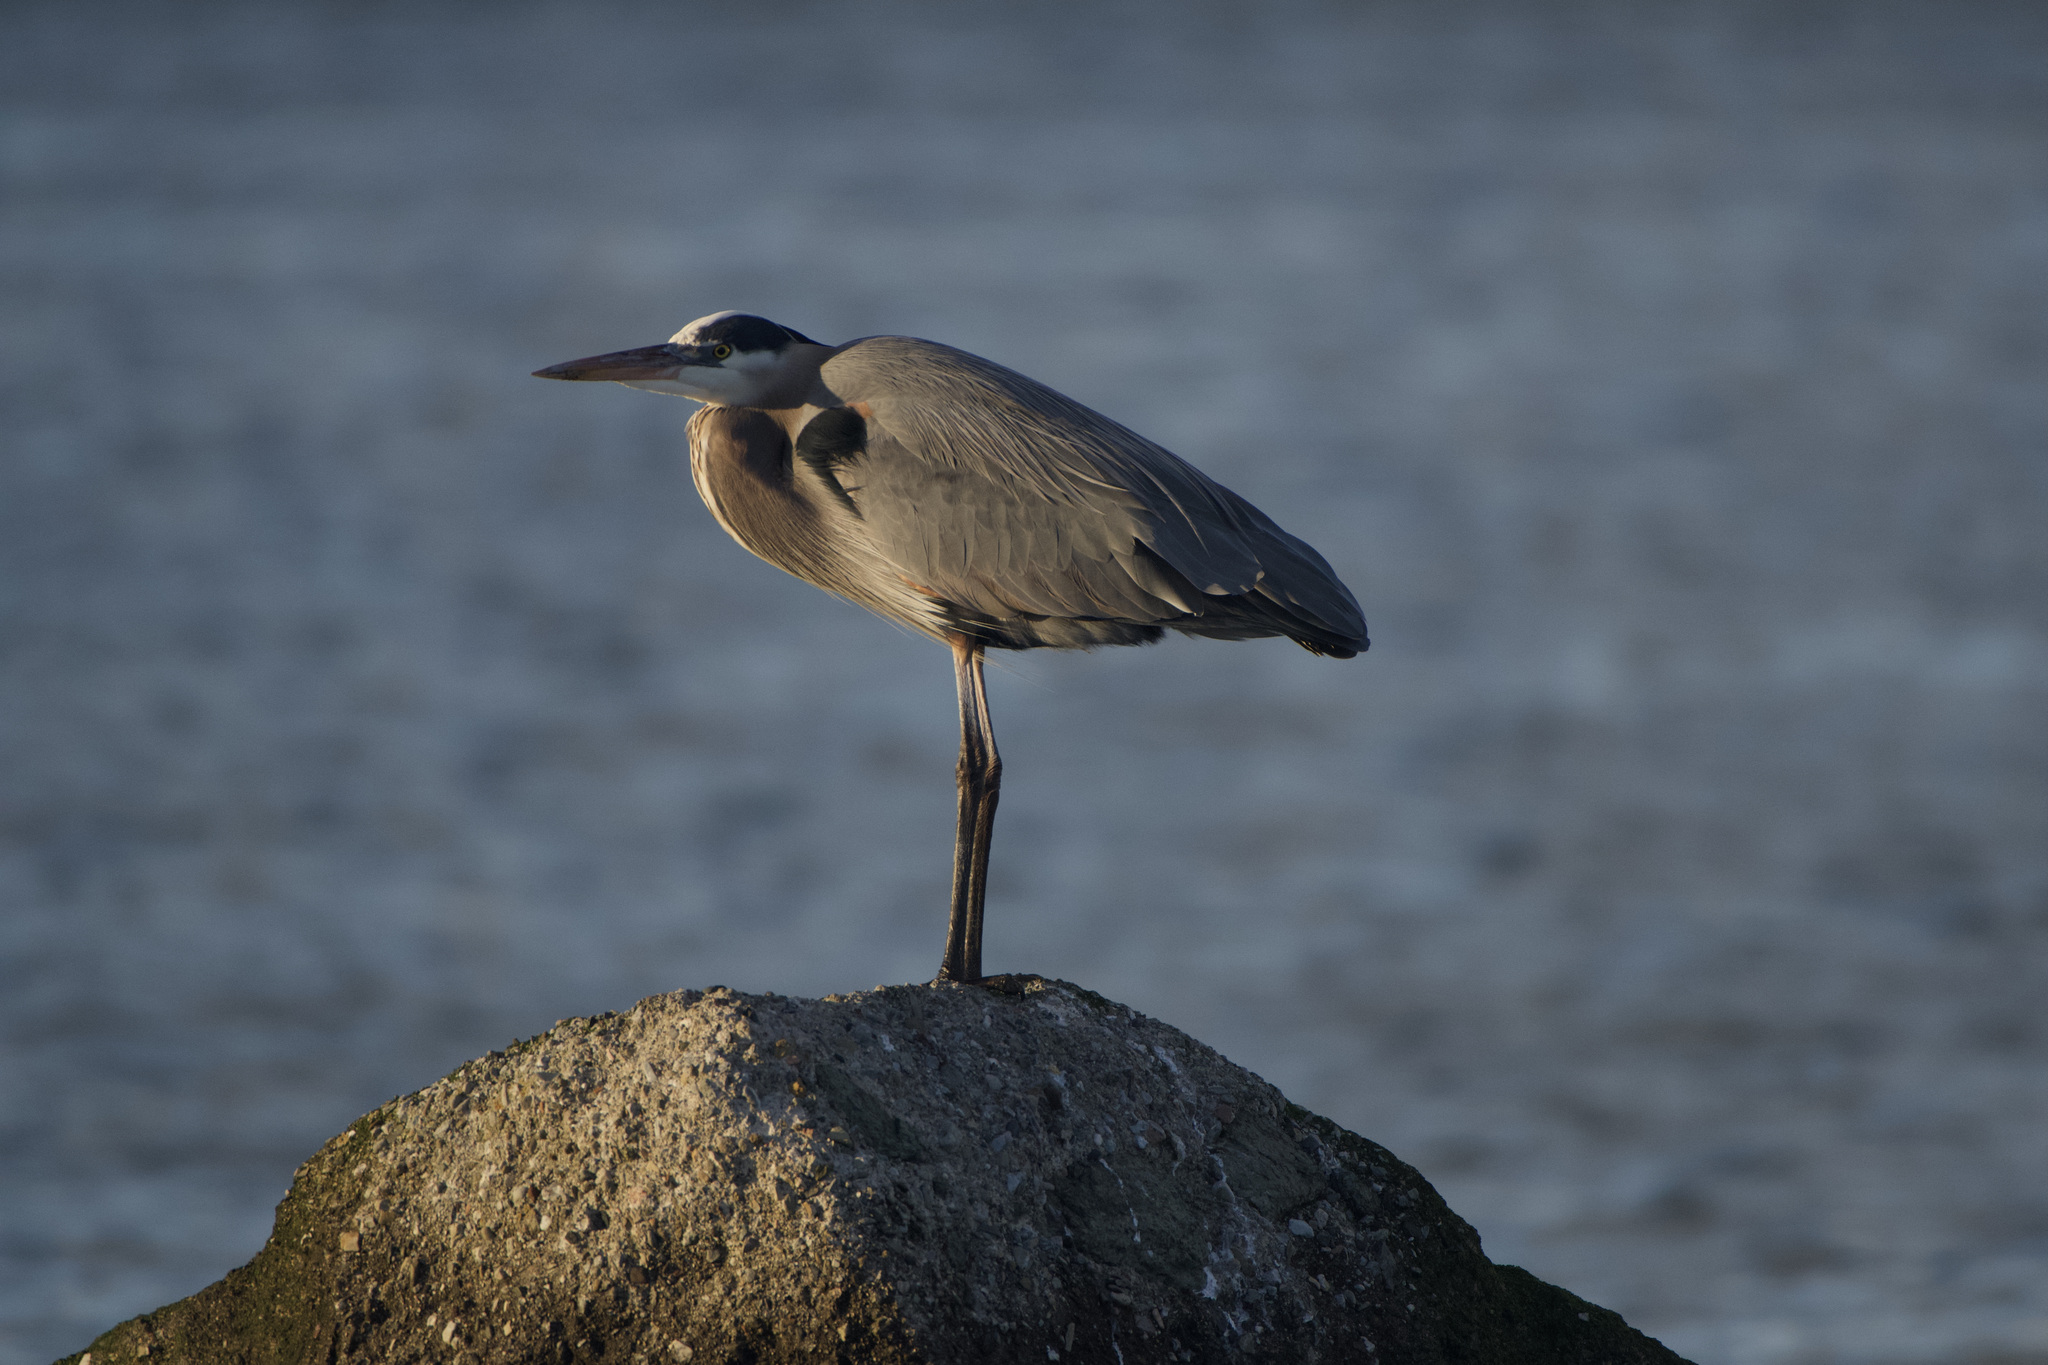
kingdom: Animalia
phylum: Chordata
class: Aves
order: Pelecaniformes
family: Ardeidae
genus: Ardea
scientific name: Ardea herodias
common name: Great blue heron
